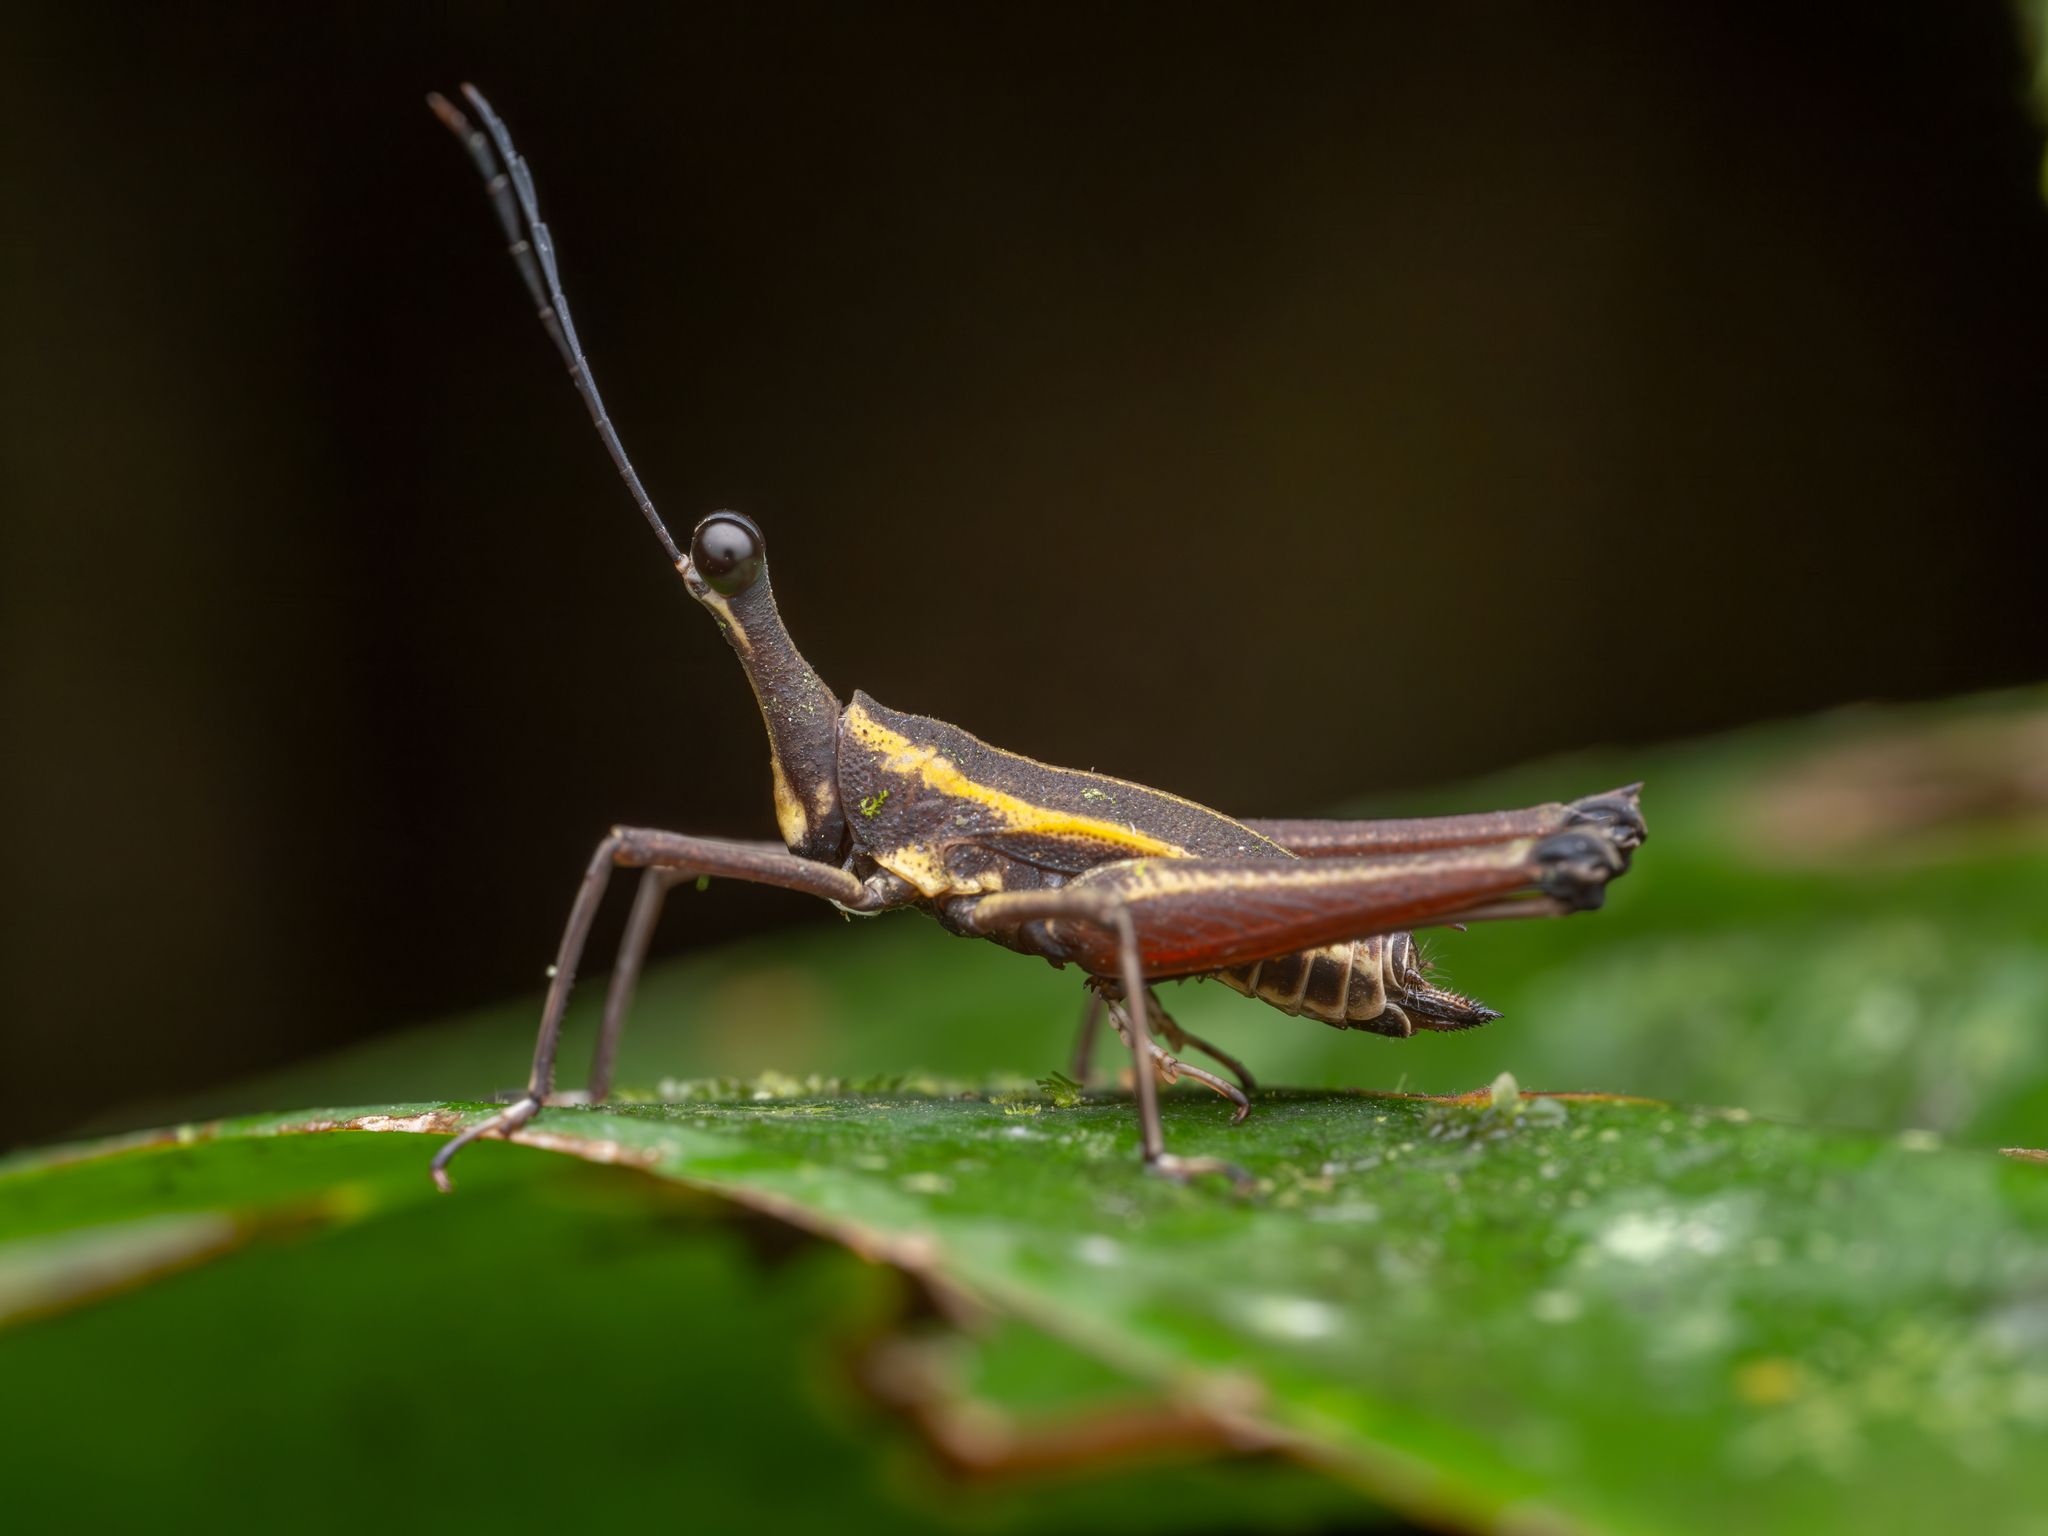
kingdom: Animalia
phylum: Arthropoda
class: Insecta
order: Orthoptera
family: Tetrigidae
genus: Ophiotettix
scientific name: Ophiotettix rohwedderi
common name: Rohwedder’s giraffehopper
